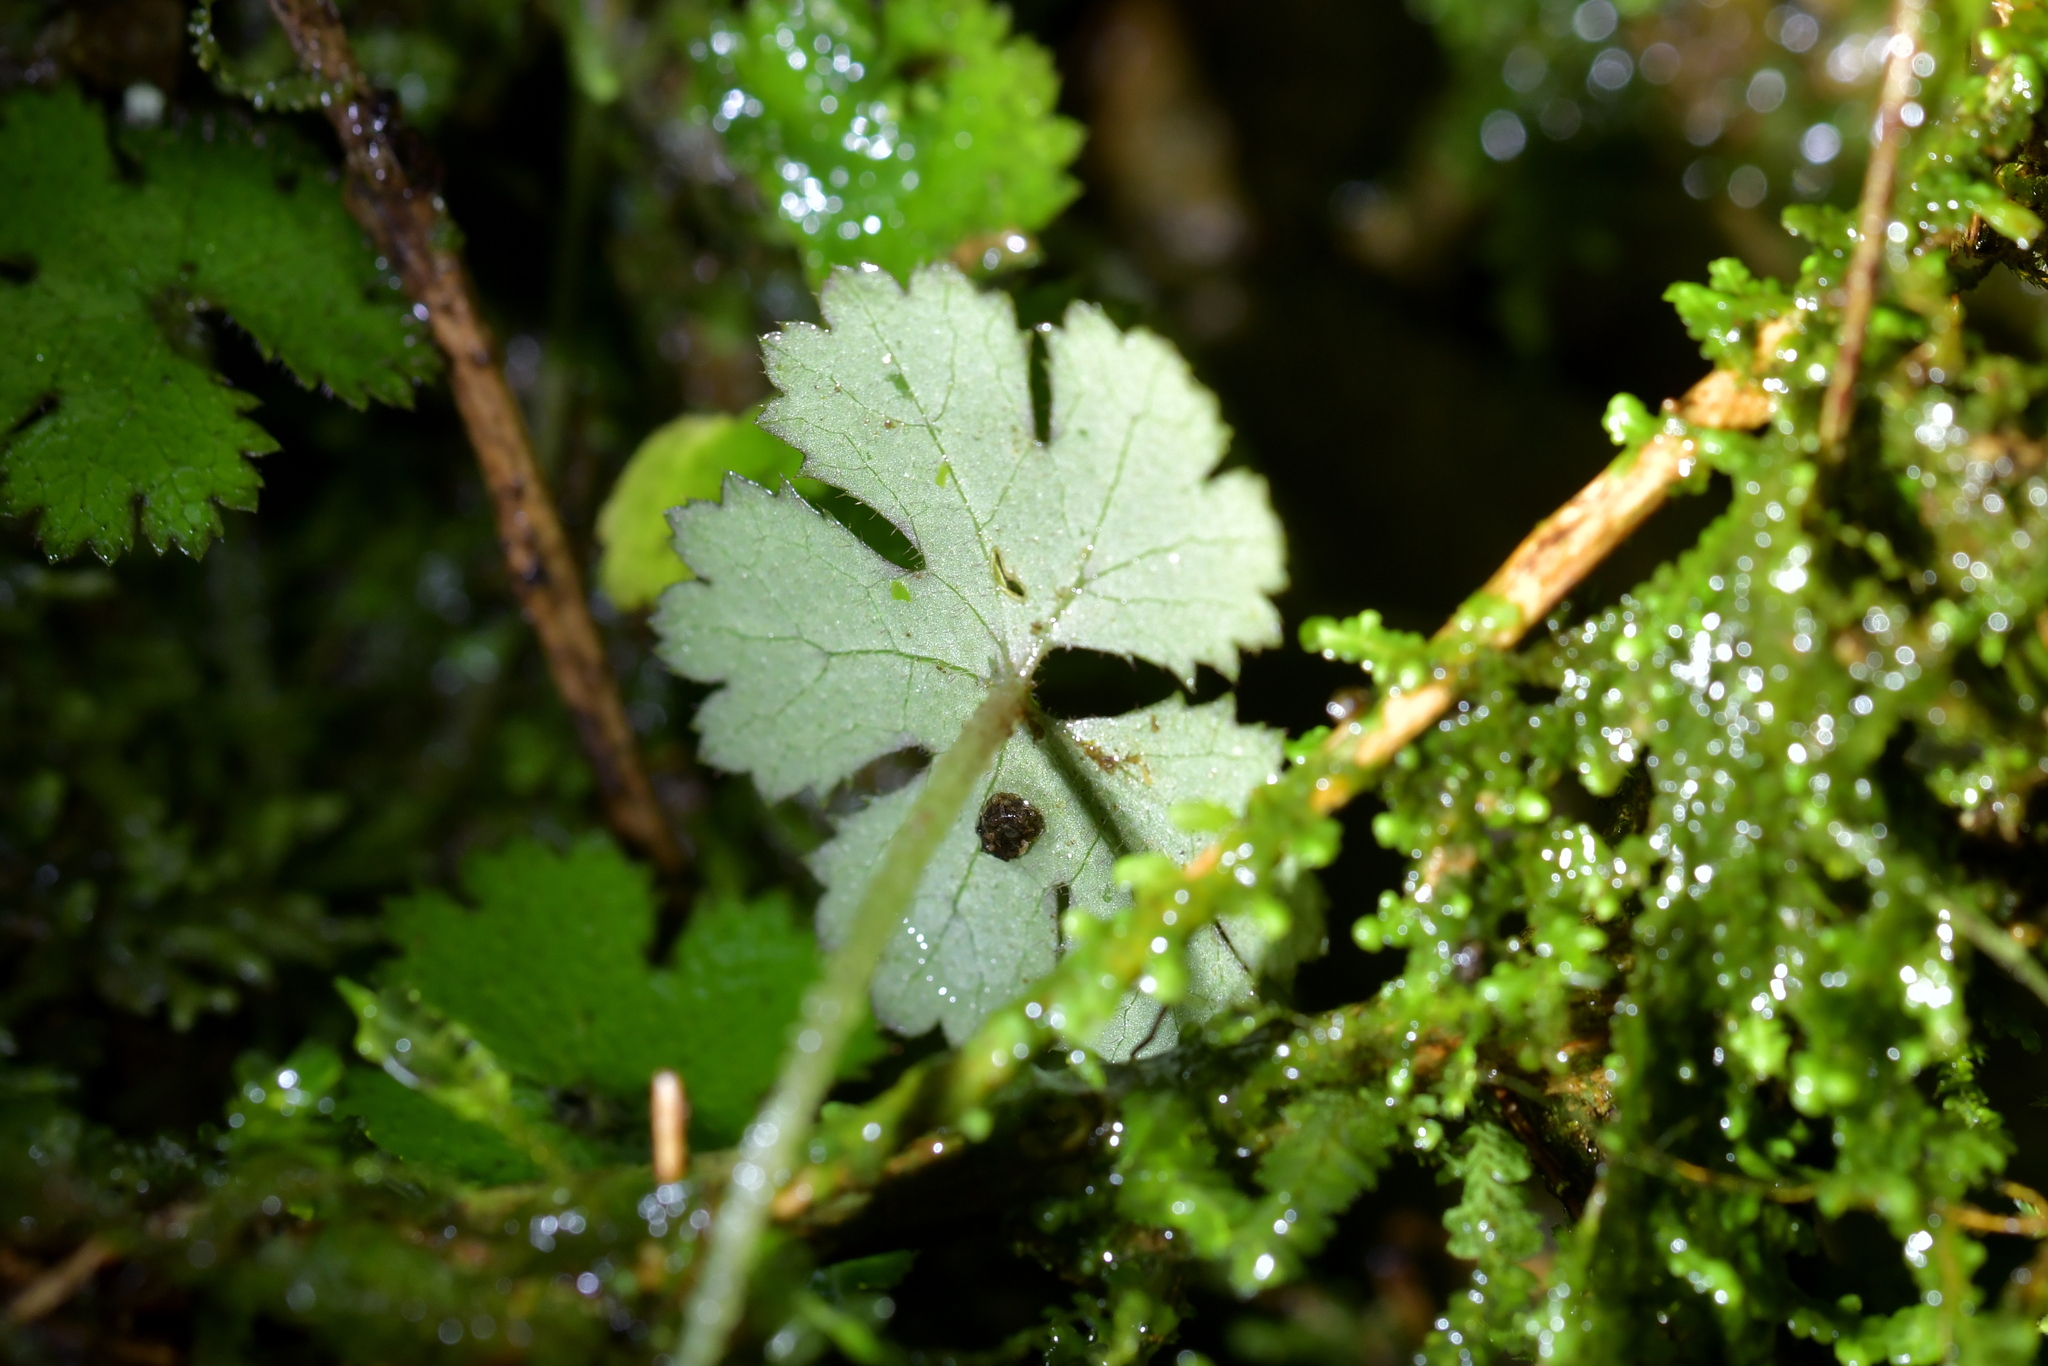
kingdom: Plantae
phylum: Tracheophyta
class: Magnoliopsida
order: Apiales
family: Araliaceae
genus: Hydrocotyle
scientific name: Hydrocotyle elongata
